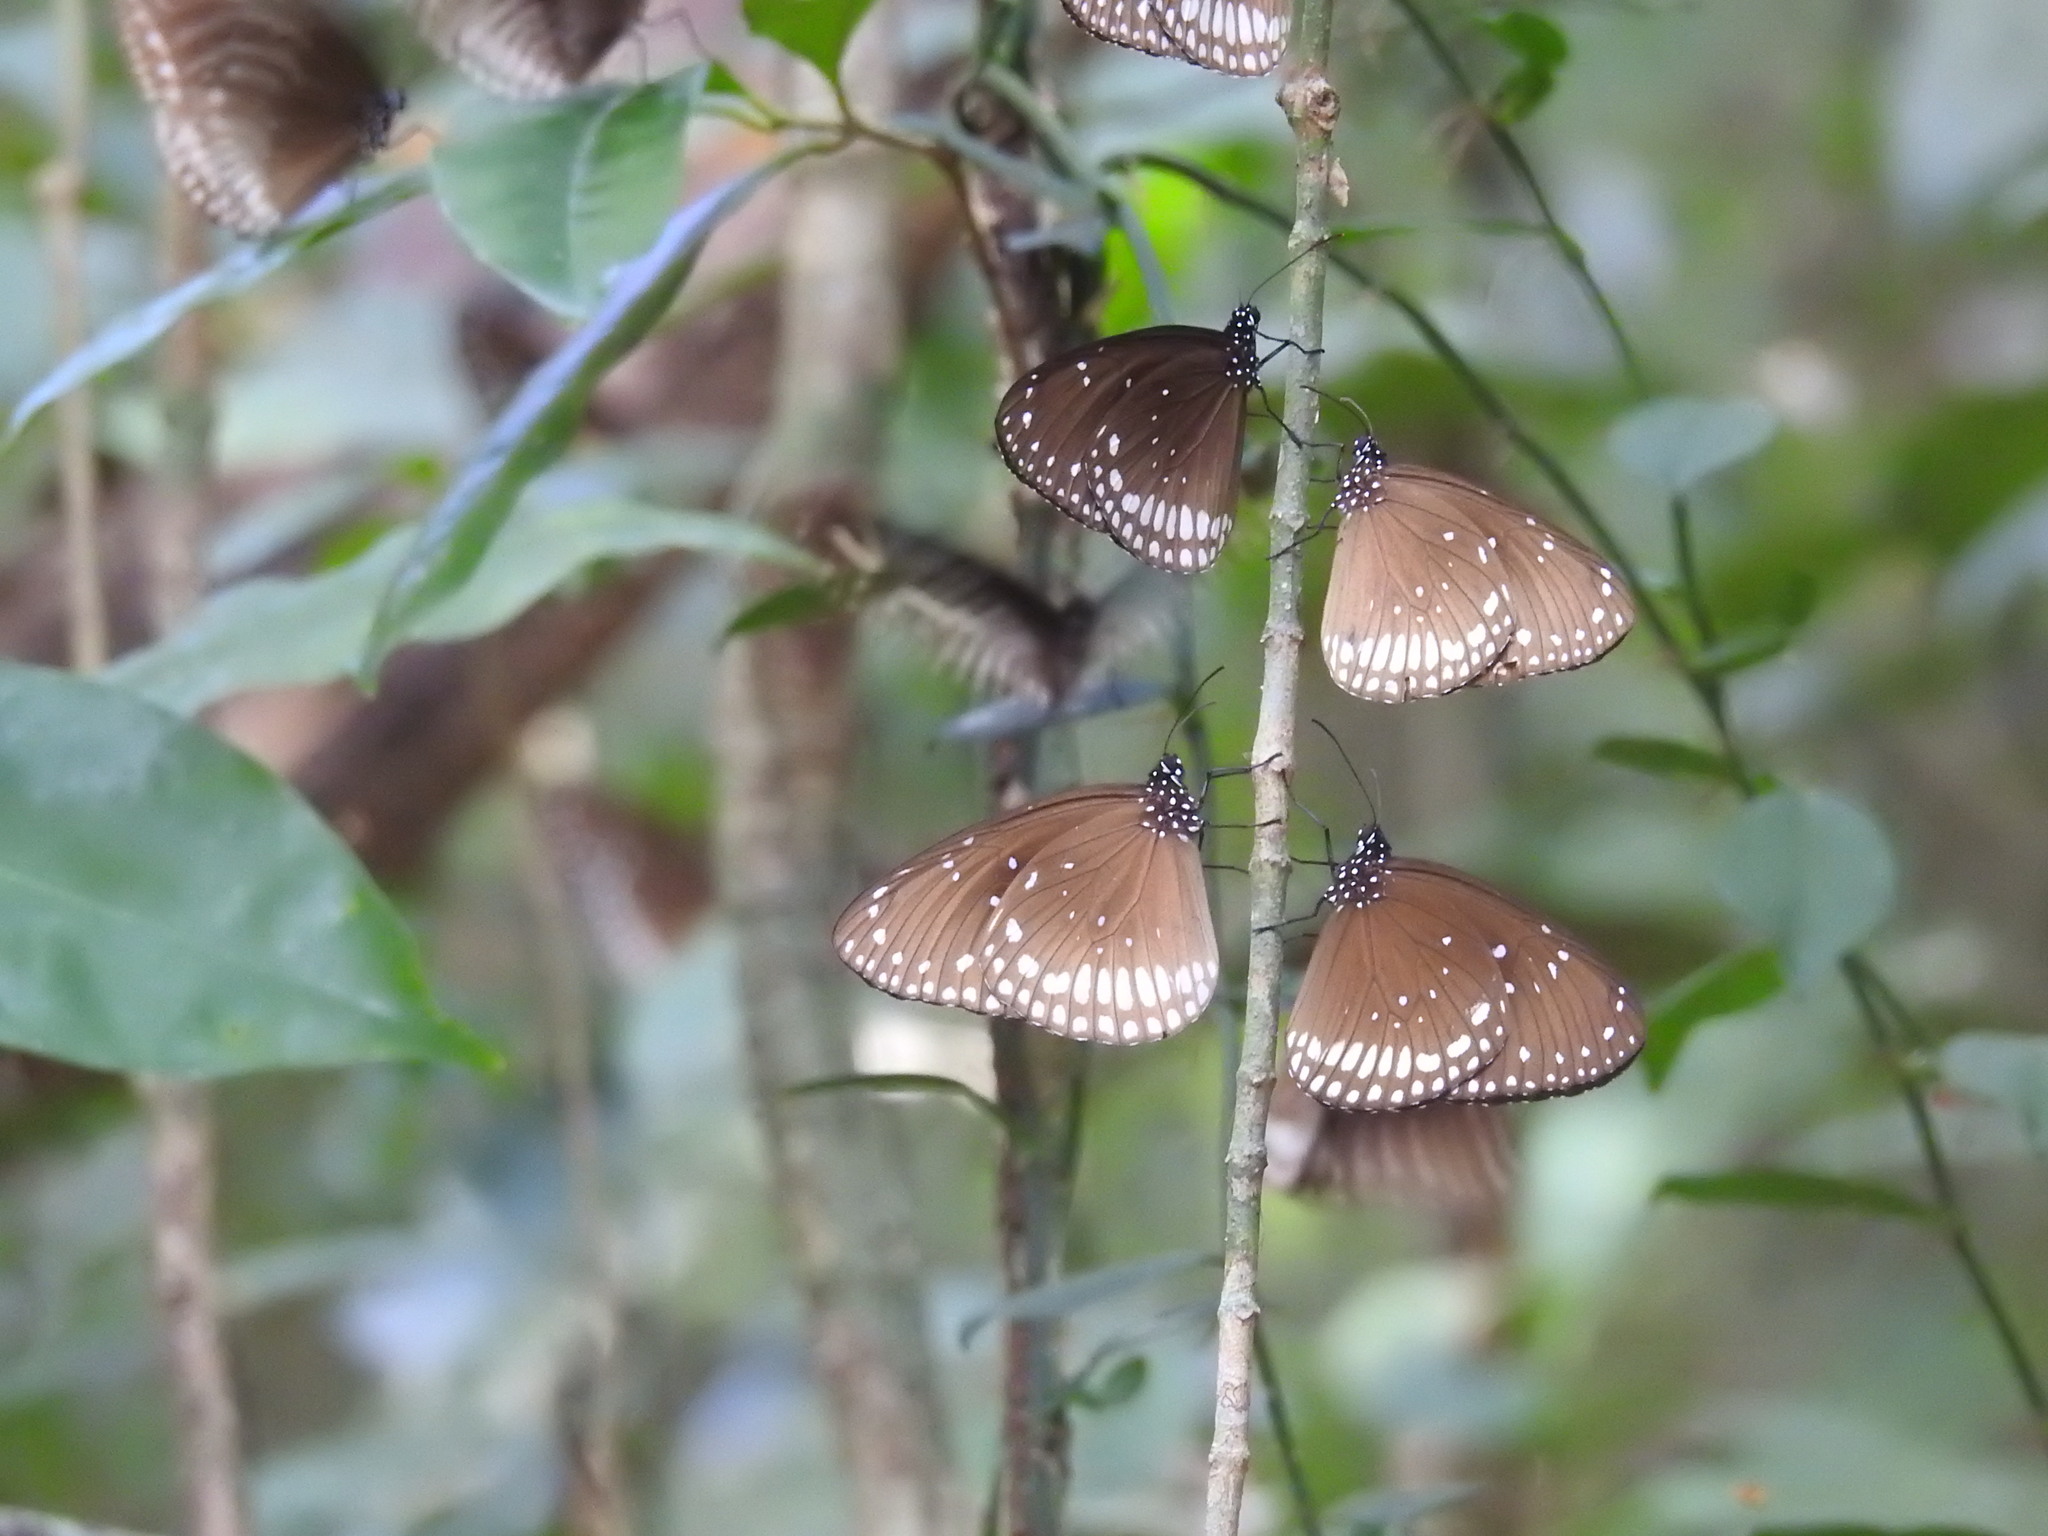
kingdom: Animalia
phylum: Arthropoda
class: Insecta
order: Lepidoptera
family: Nymphalidae
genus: Euploea
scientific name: Euploea sylvester
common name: Double-branded crow butterfly
